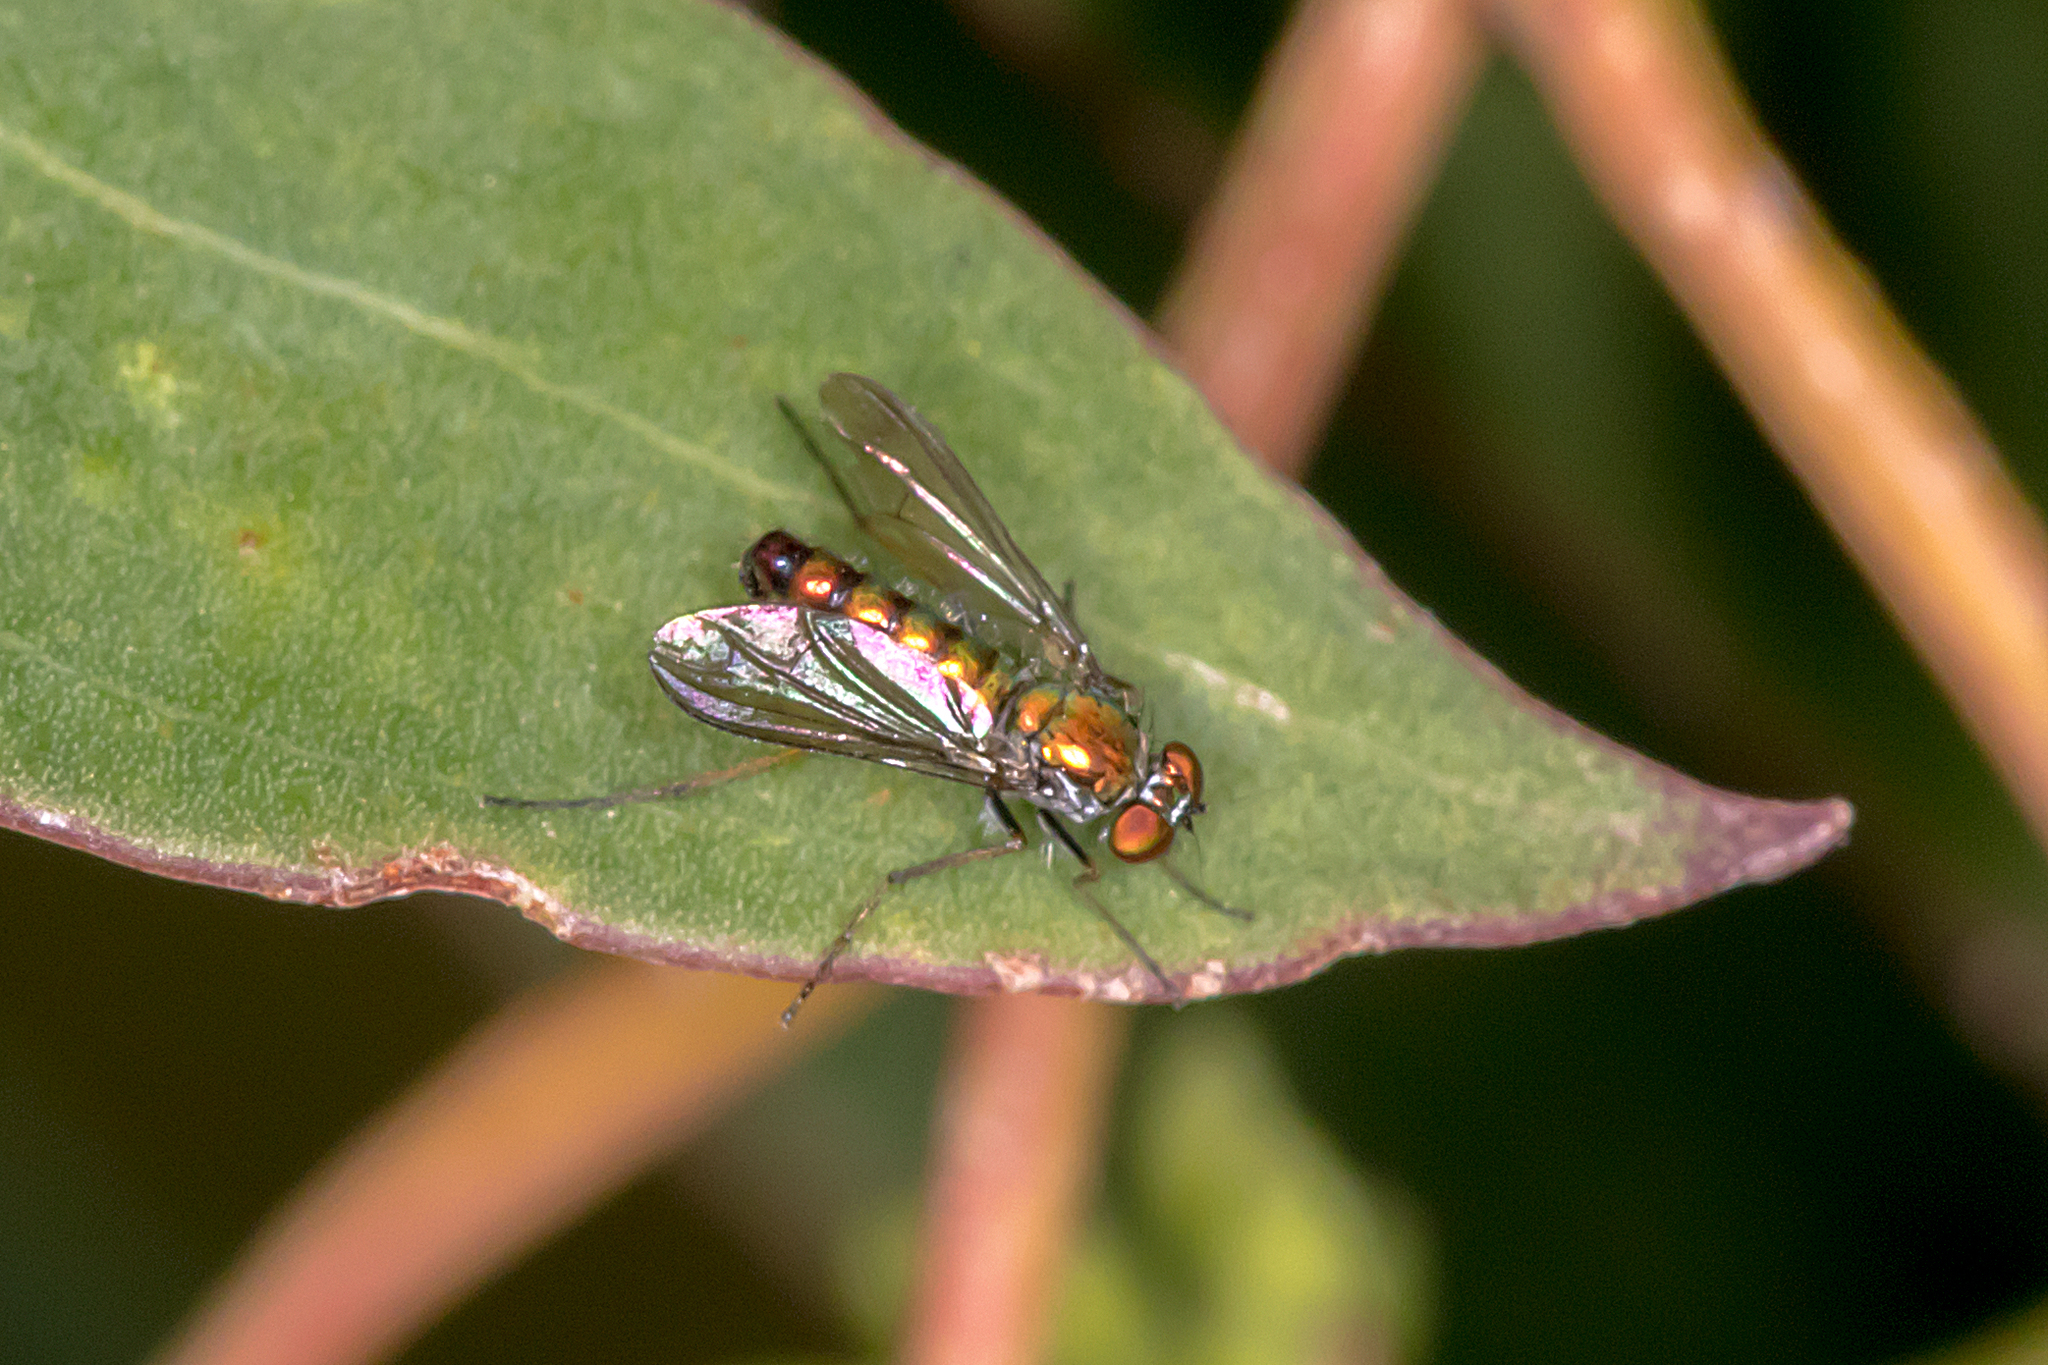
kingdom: Animalia
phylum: Arthropoda
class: Insecta
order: Diptera
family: Dolichopodidae
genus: Austrosciapus
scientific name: Austrosciapus tumidus
